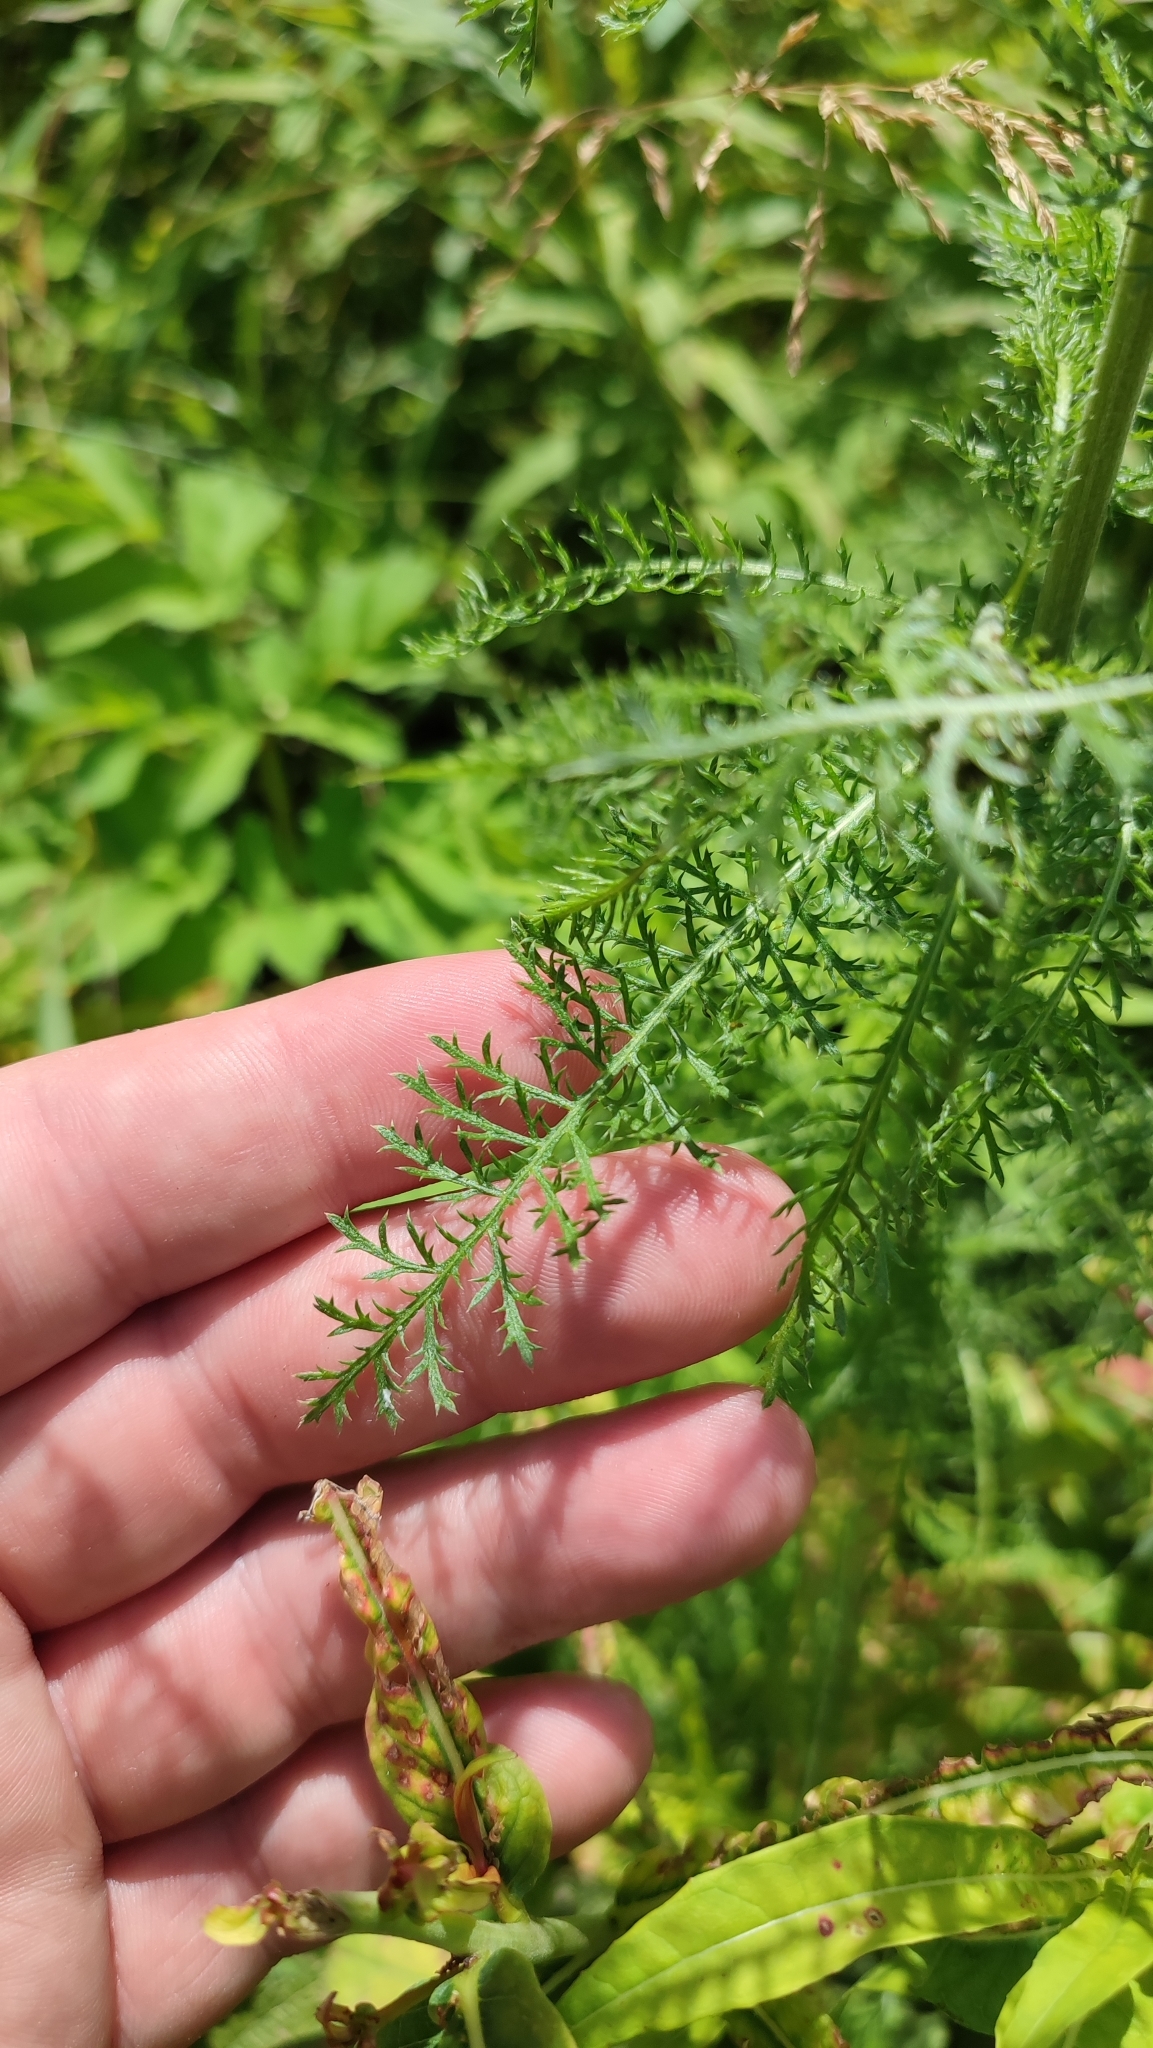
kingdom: Plantae
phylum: Tracheophyta
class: Magnoliopsida
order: Asterales
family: Asteraceae
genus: Achillea
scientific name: Achillea asiatica
